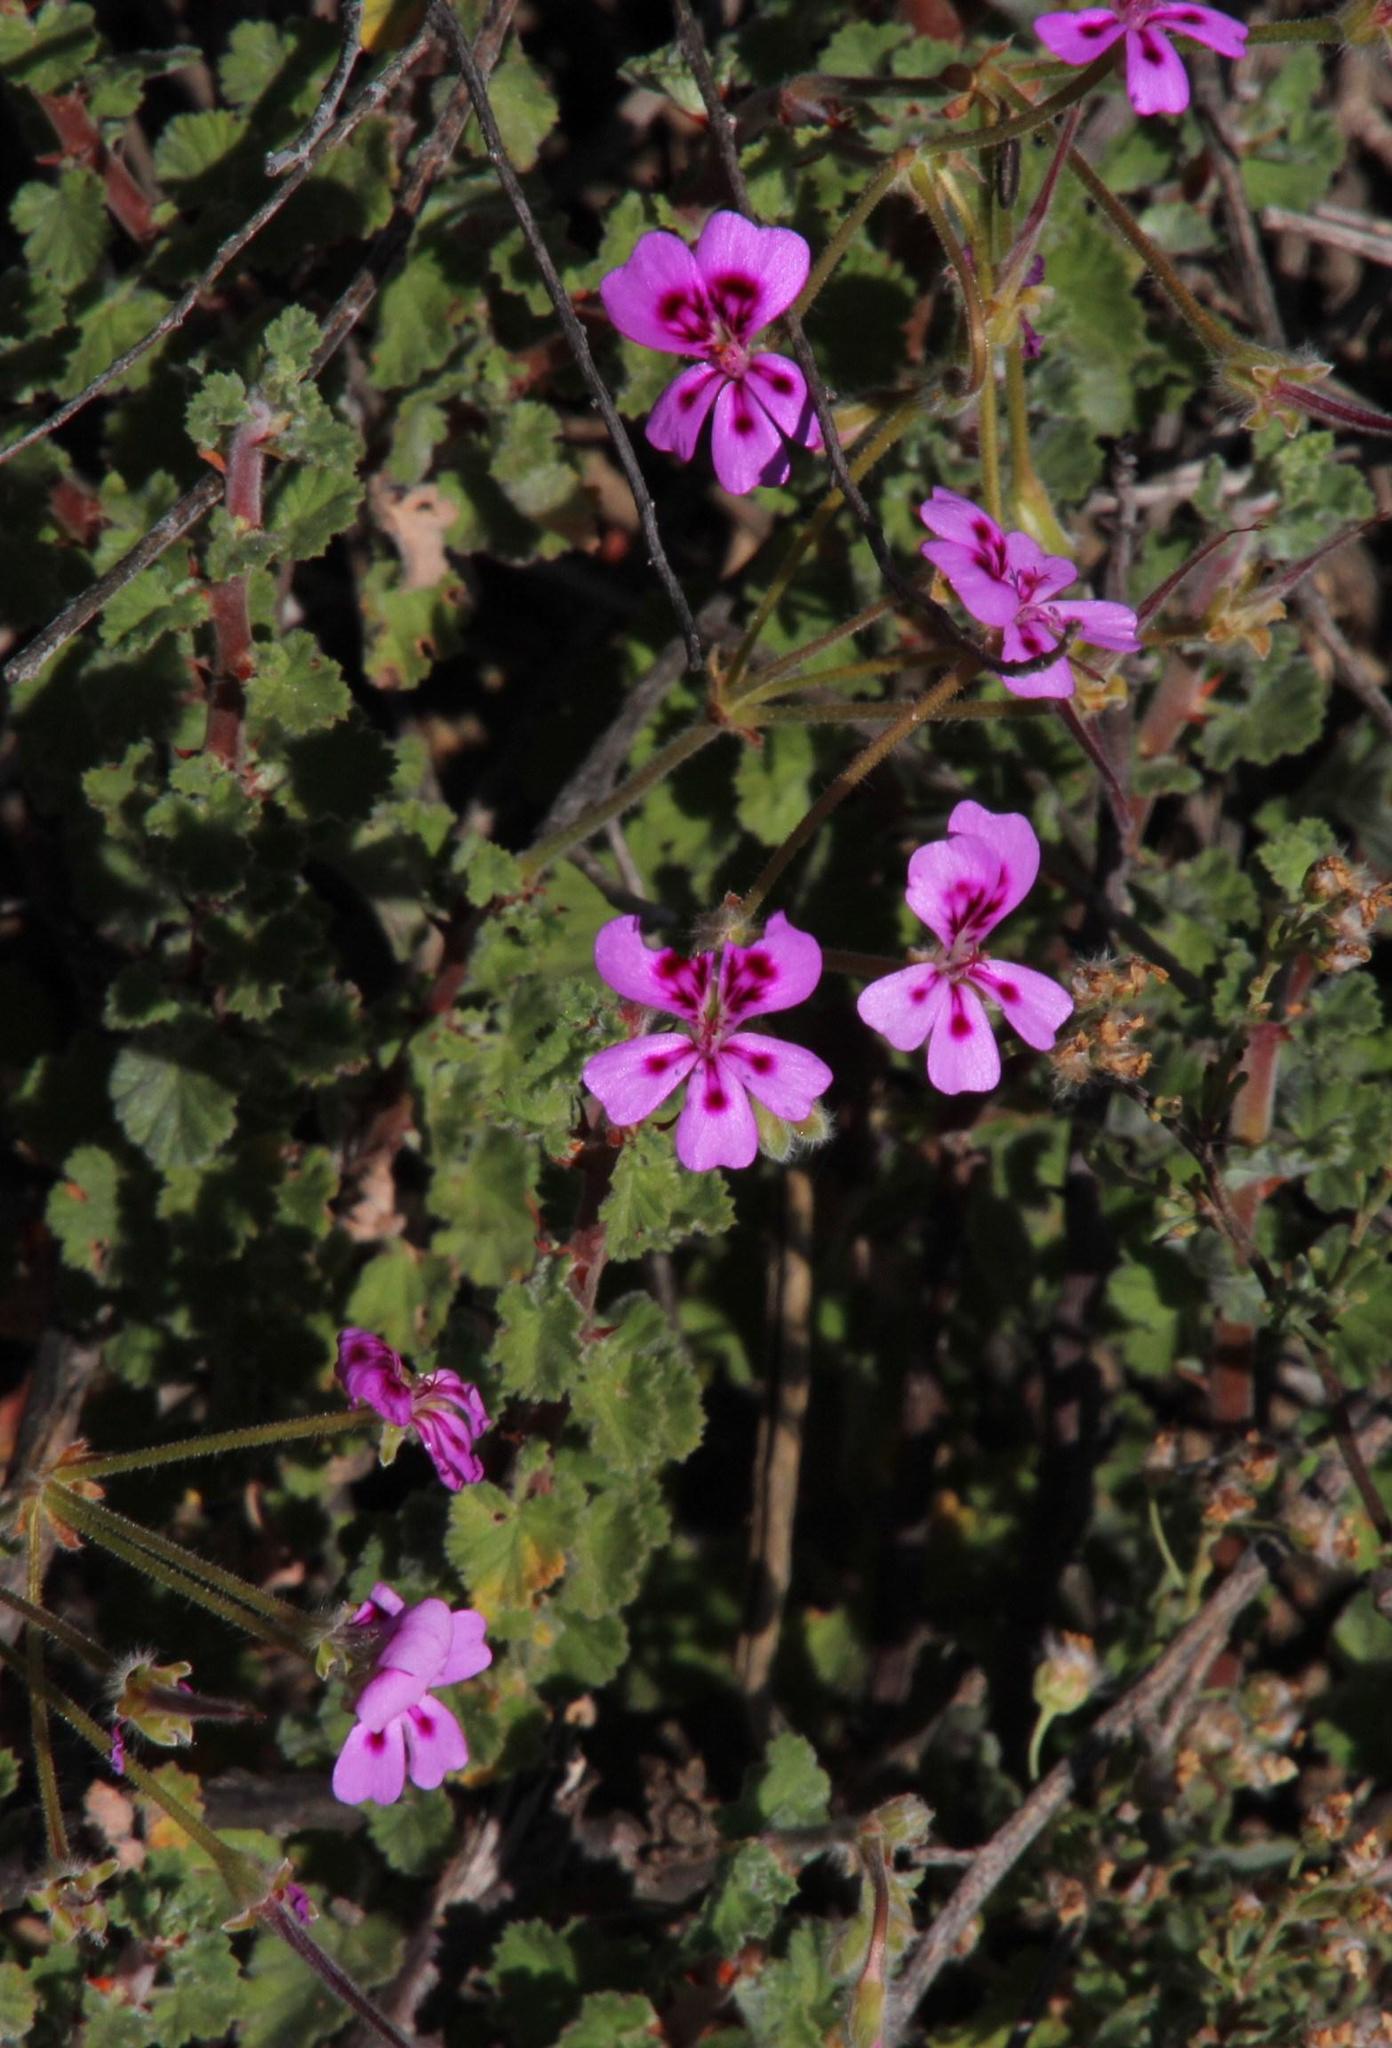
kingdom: Plantae
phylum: Tracheophyta
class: Magnoliopsida
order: Geraniales
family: Geraniaceae
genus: Pelargonium
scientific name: Pelargonium magenteum
